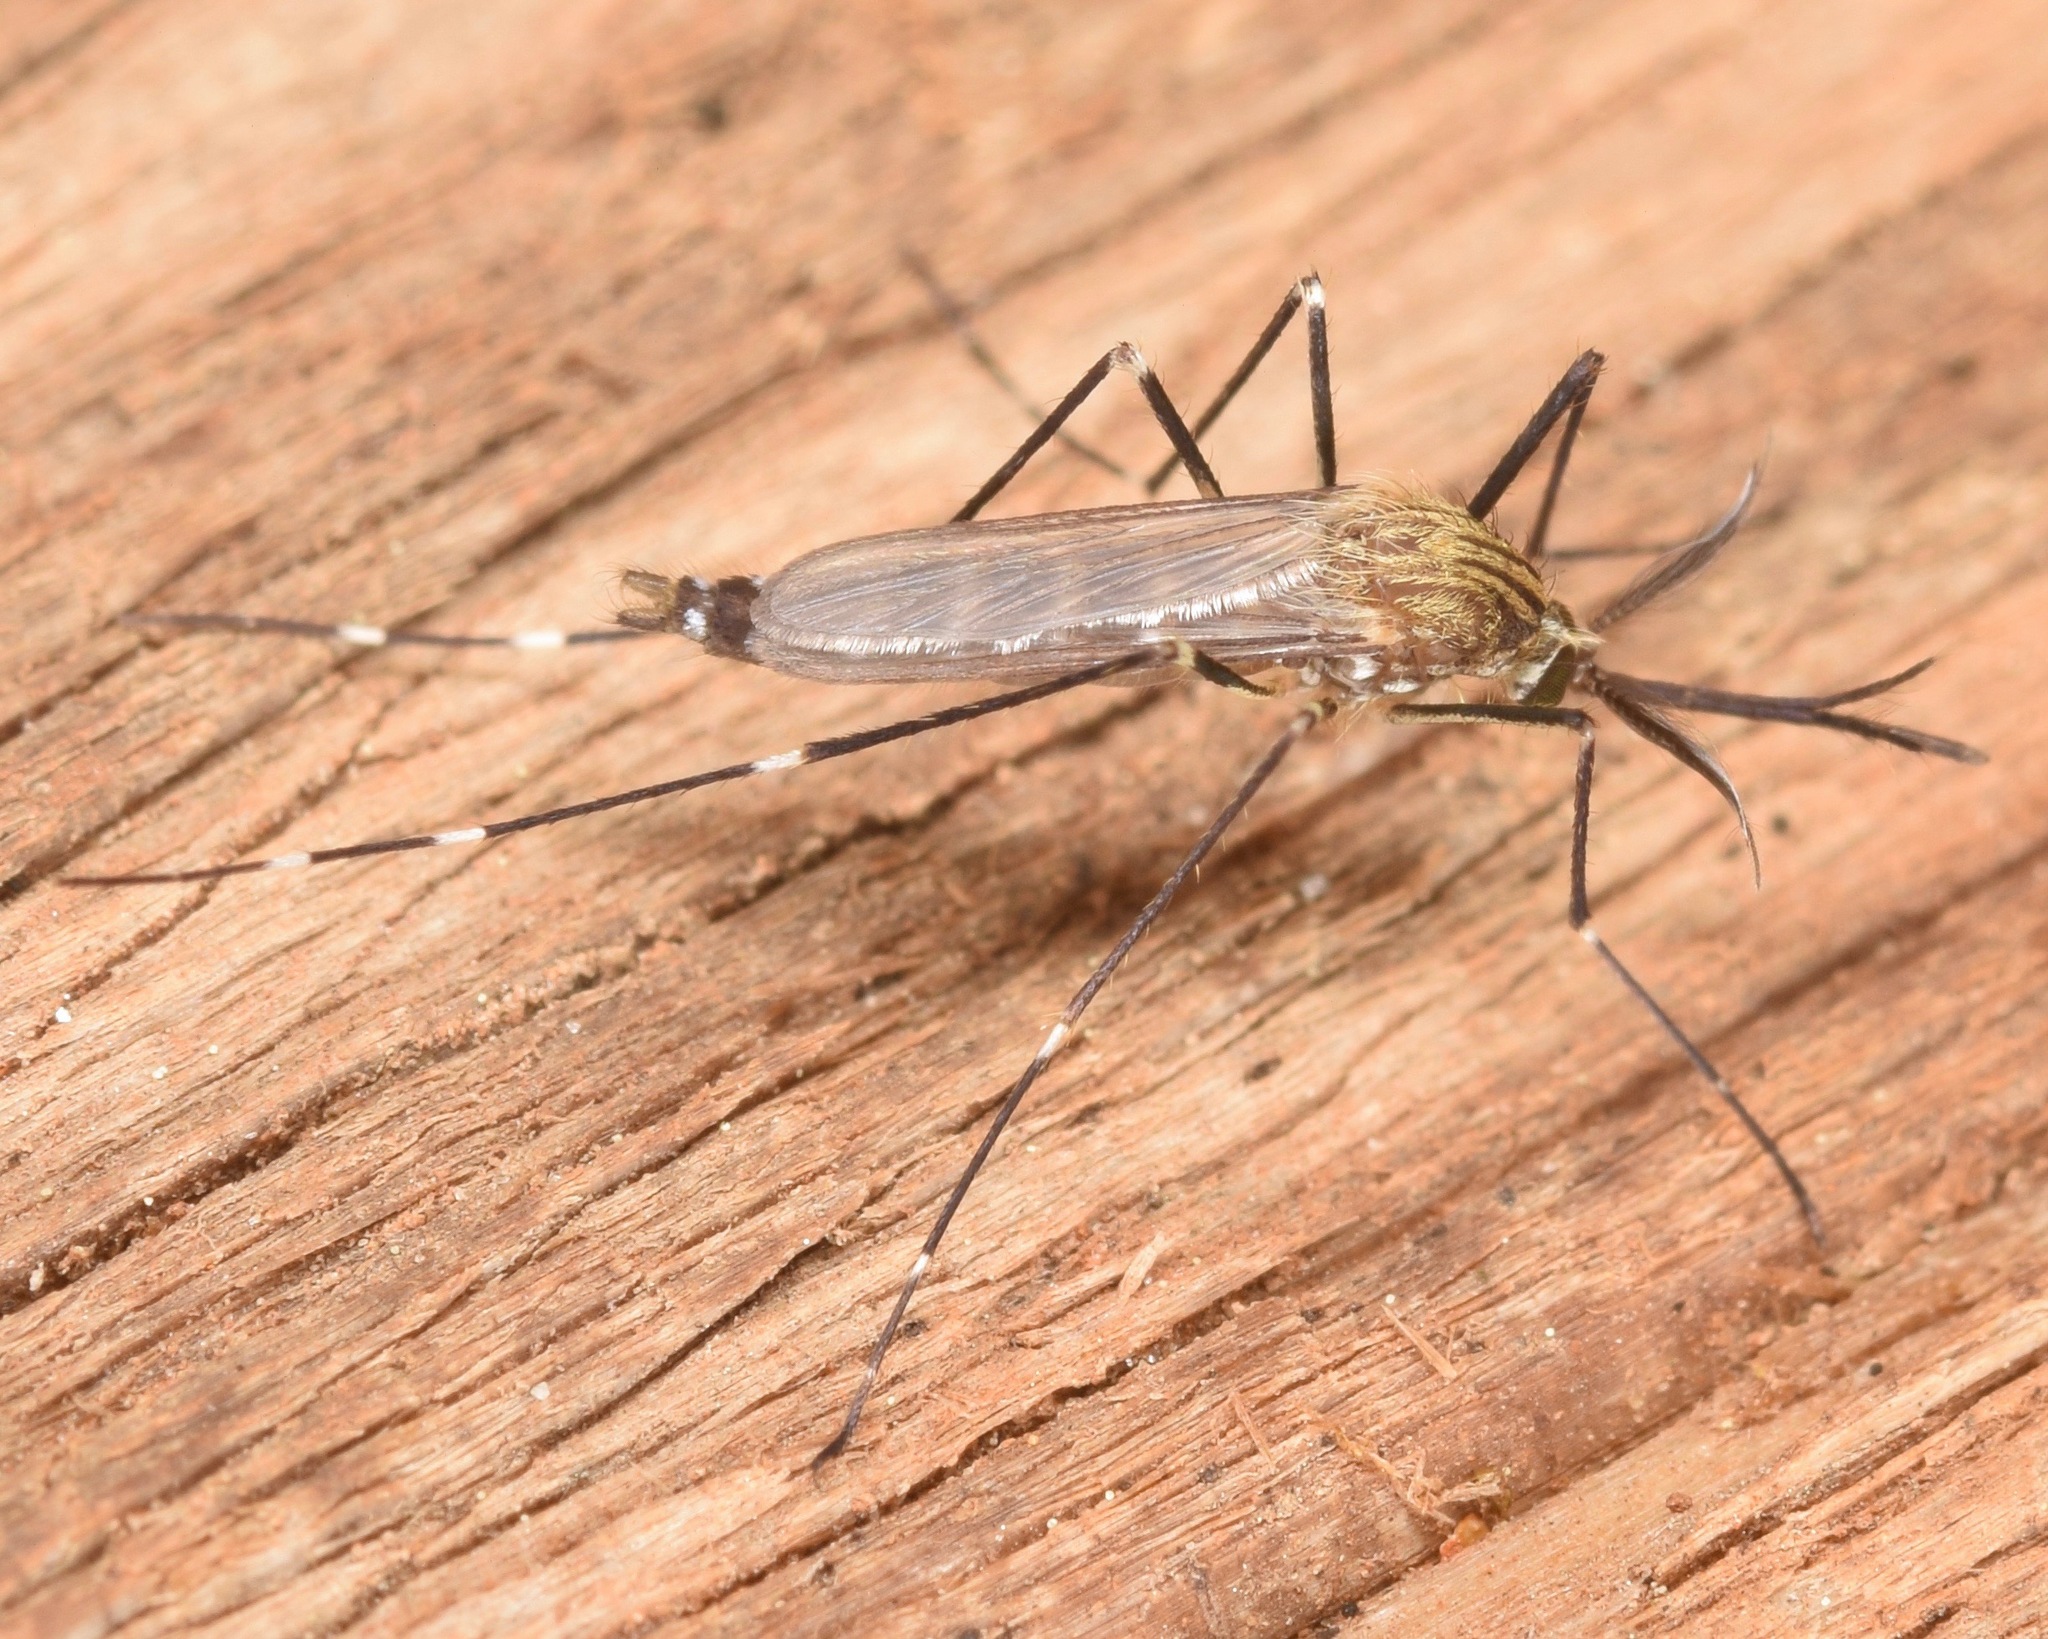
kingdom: Animalia
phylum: Arthropoda
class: Insecta
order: Diptera
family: Culicidae
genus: Aedes
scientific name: Aedes japonicus
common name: Asian bush mosquito
